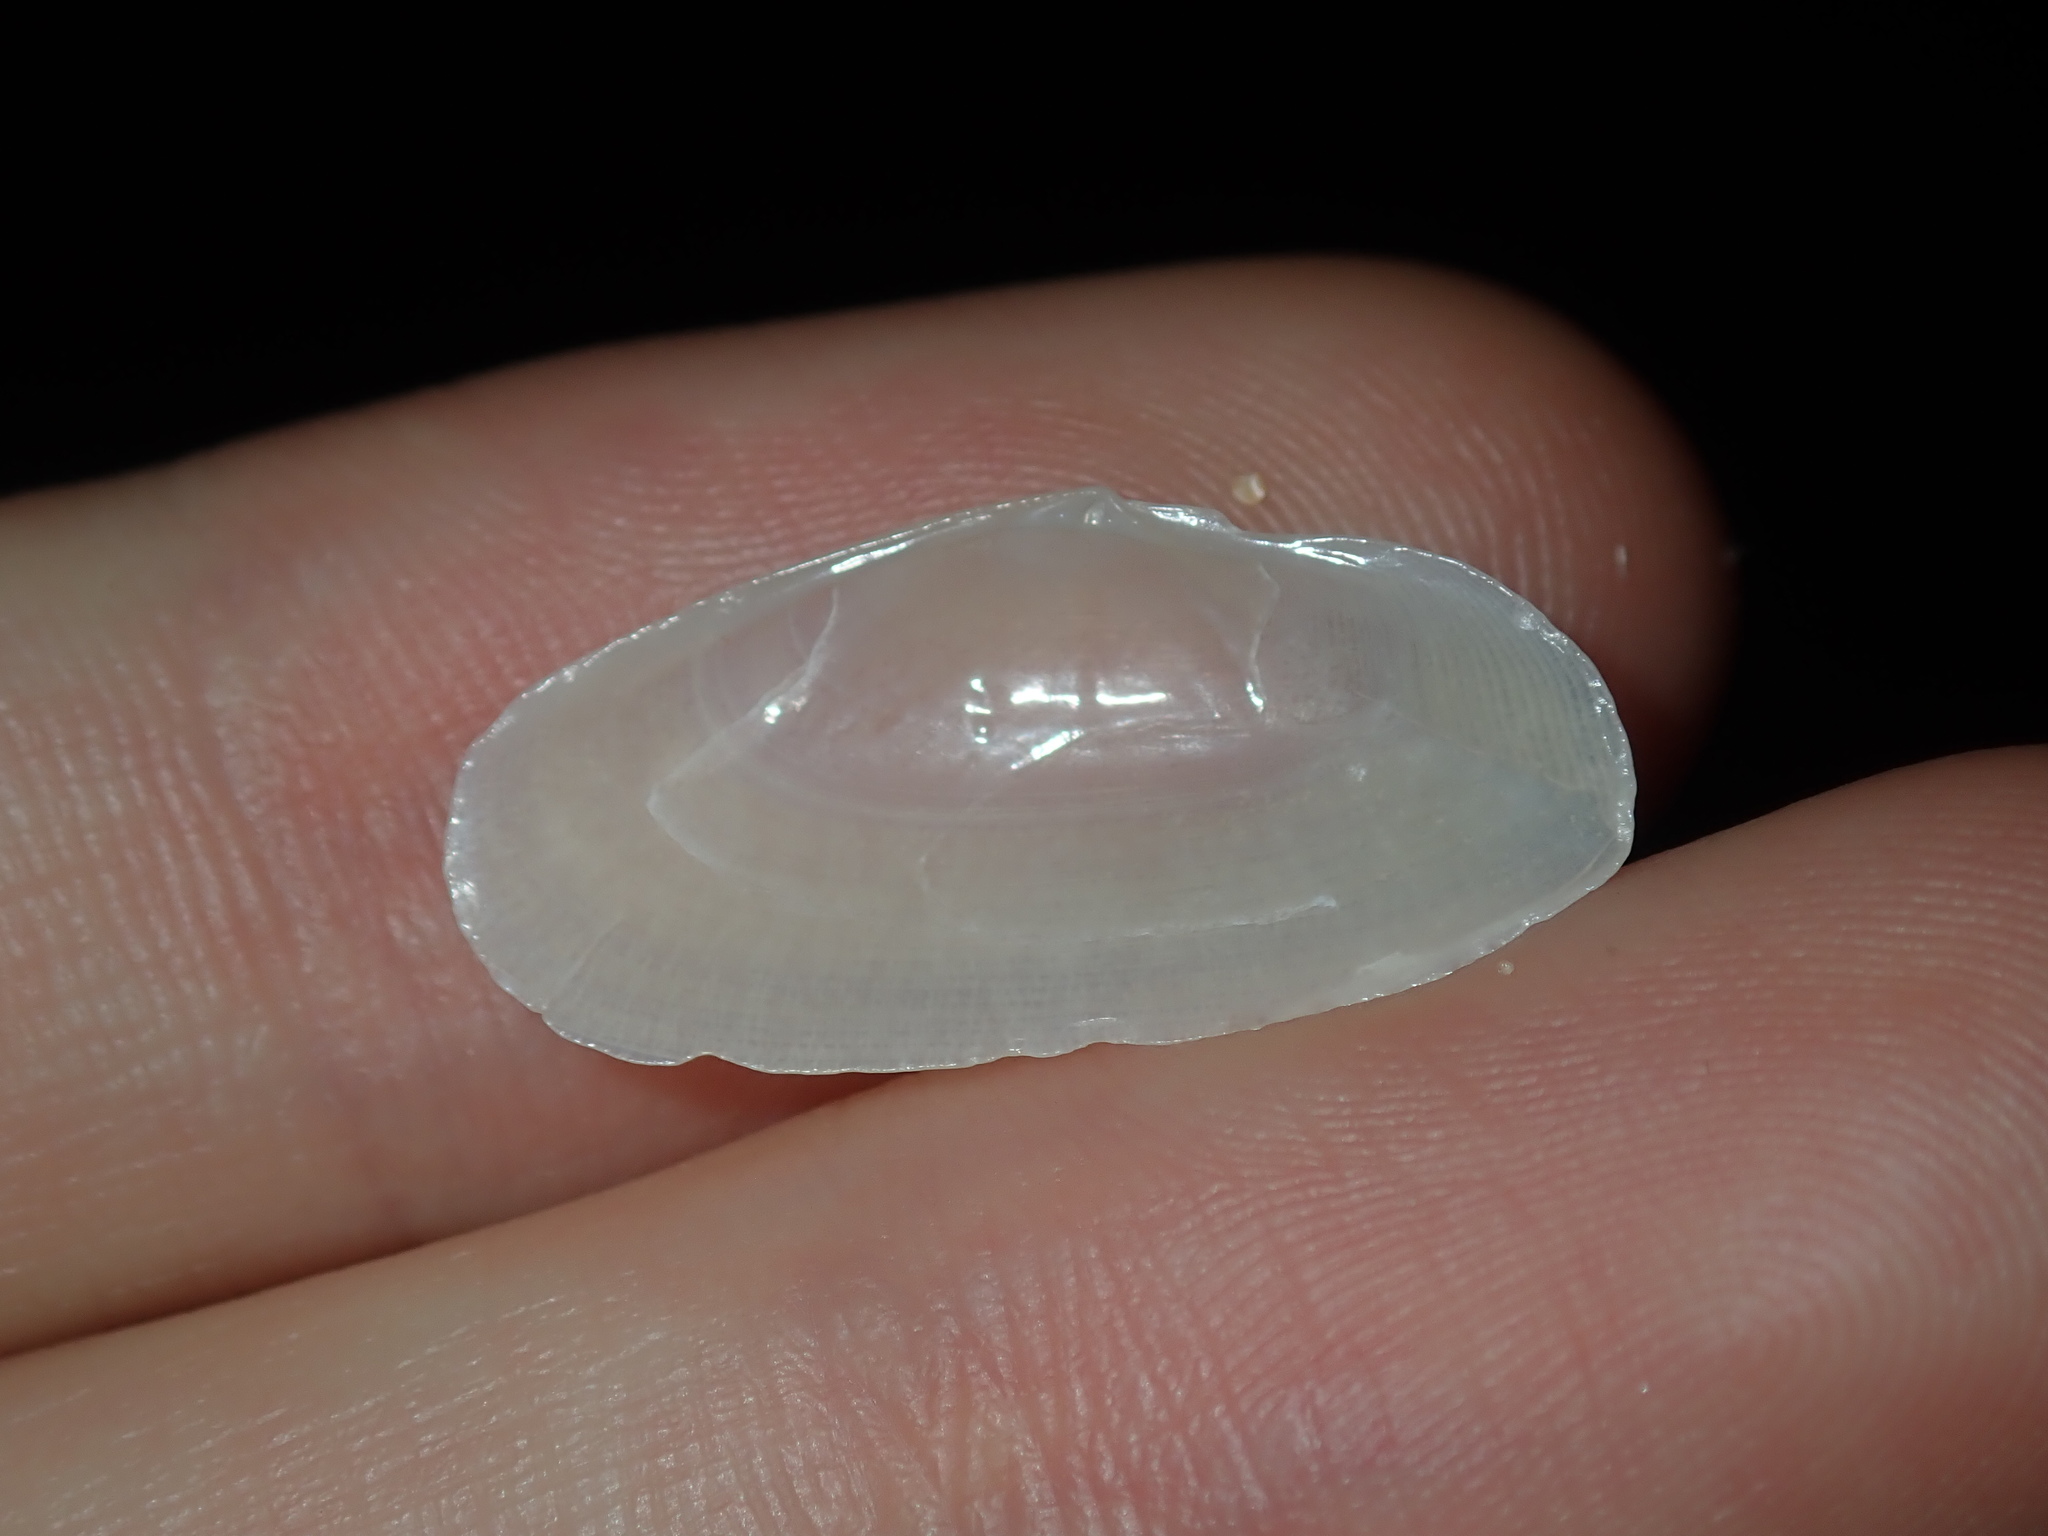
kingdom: Animalia
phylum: Mollusca
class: Bivalvia
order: Cardiida
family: Psammobiidae
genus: Gari
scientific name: Gari livida
